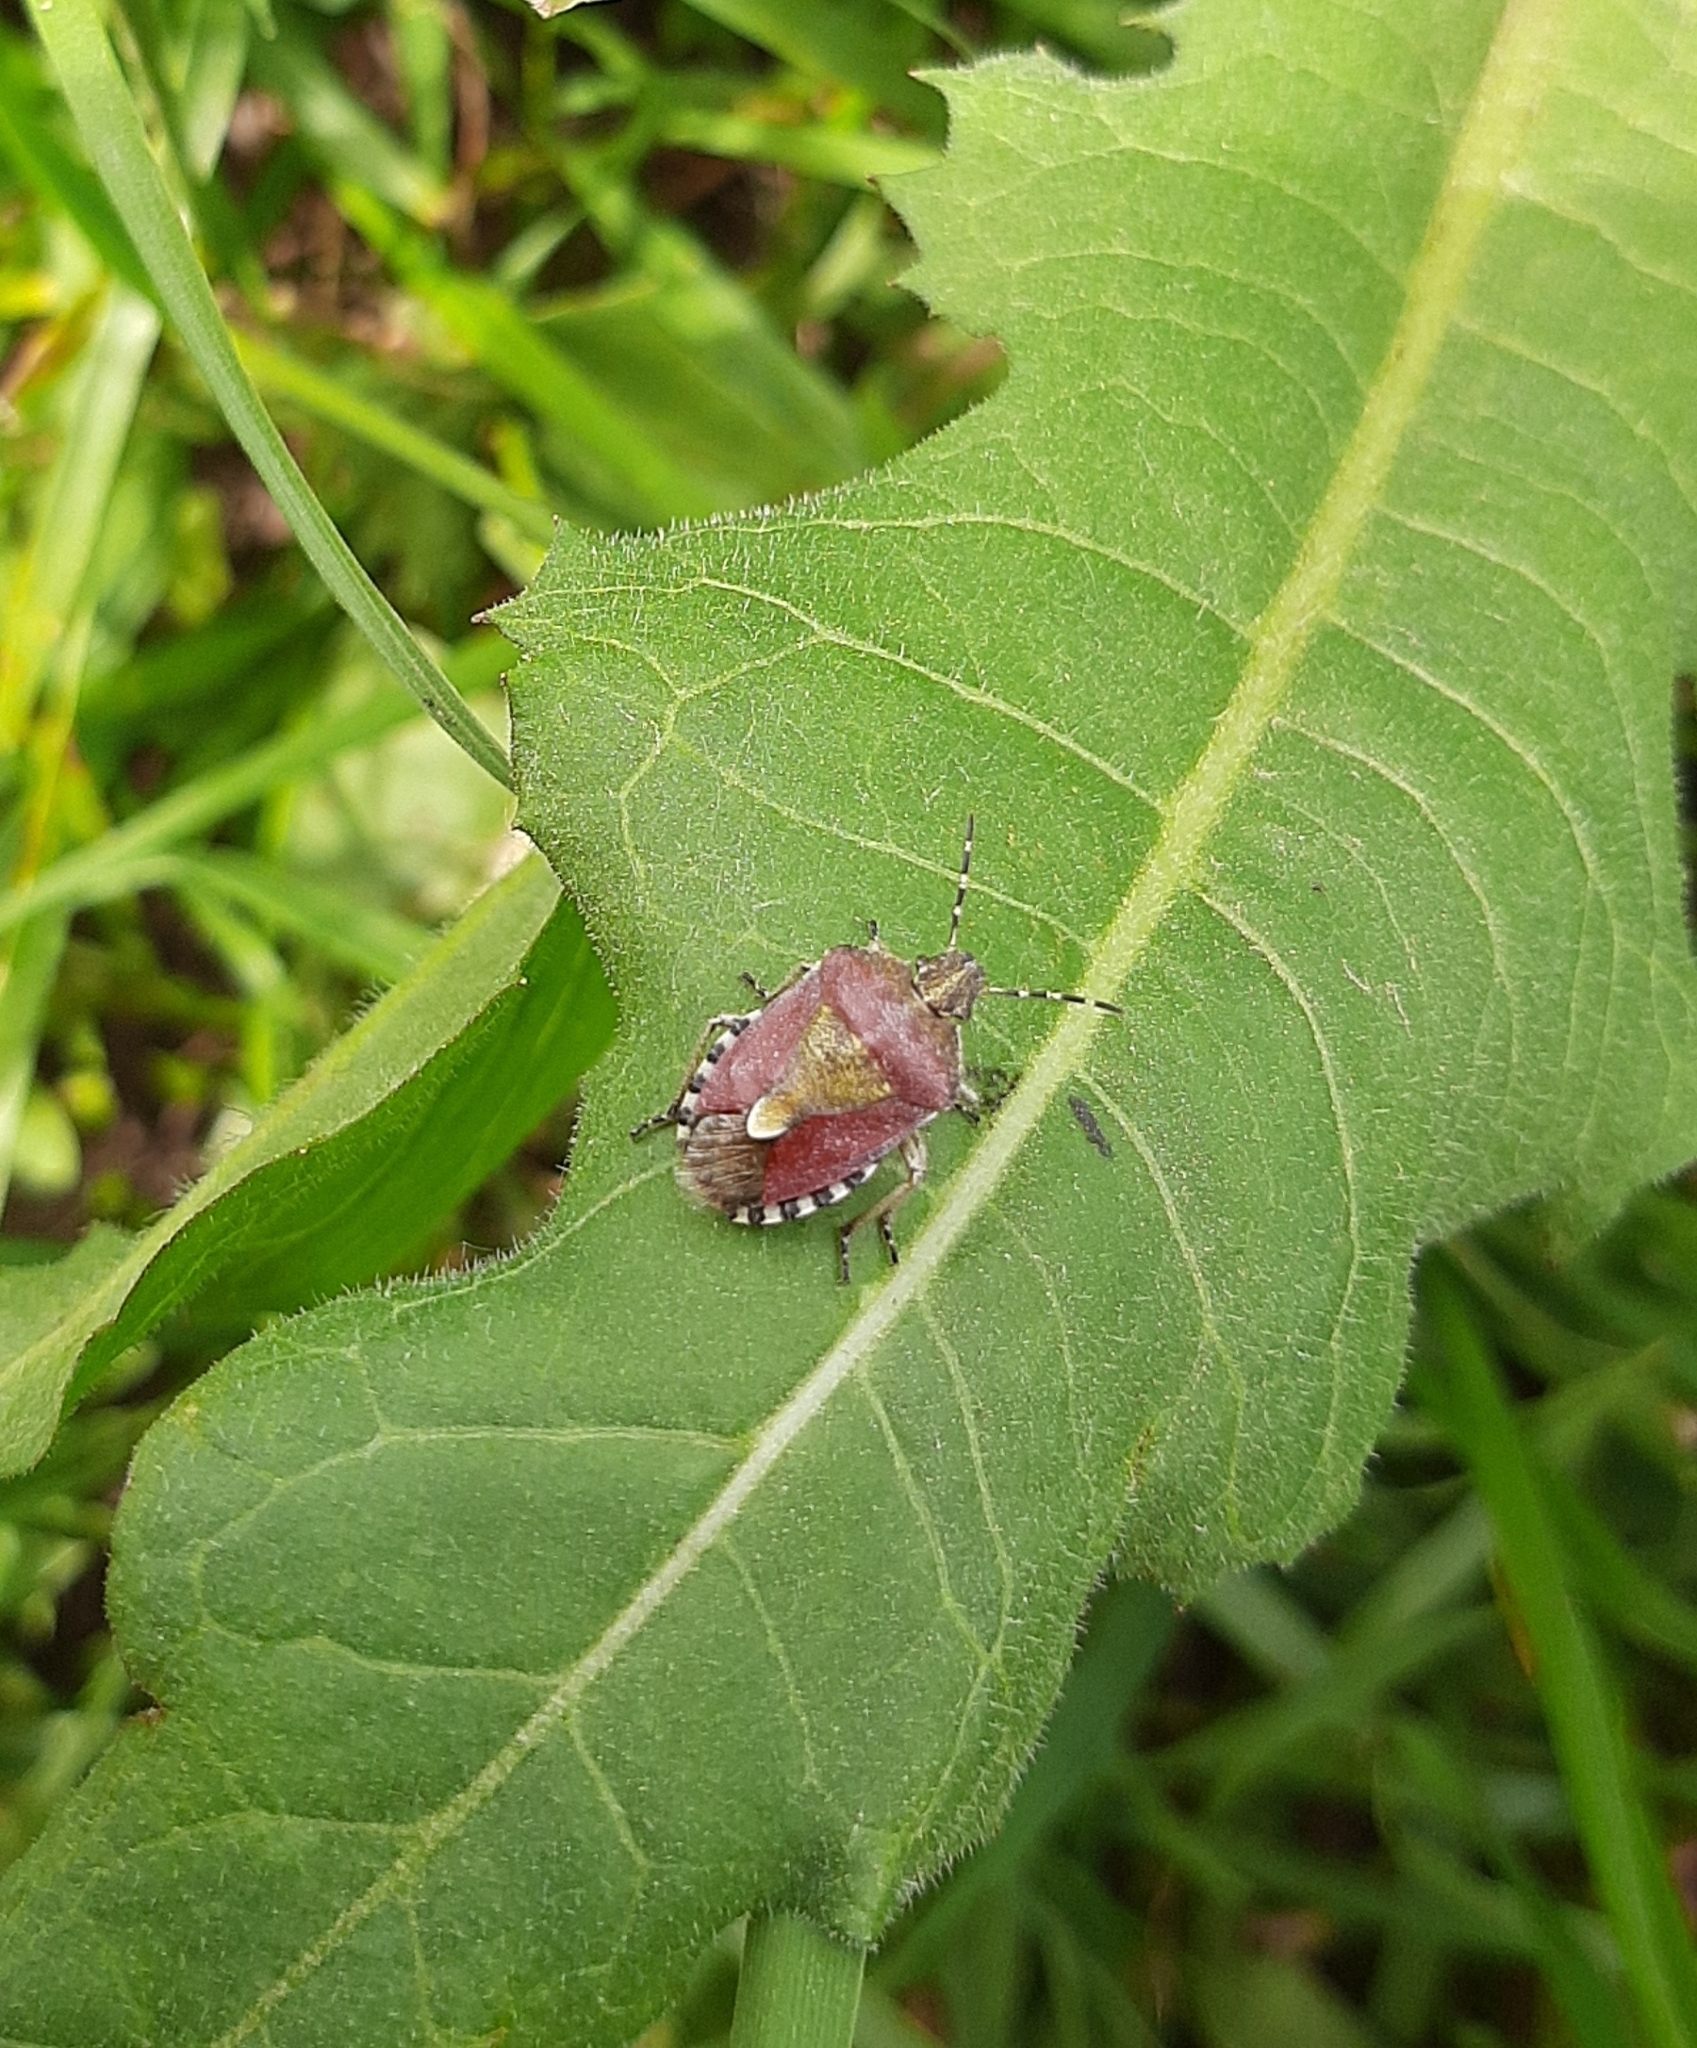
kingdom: Animalia
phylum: Arthropoda
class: Insecta
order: Hemiptera
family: Pentatomidae
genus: Dolycoris
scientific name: Dolycoris baccarum
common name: Sloe bug
